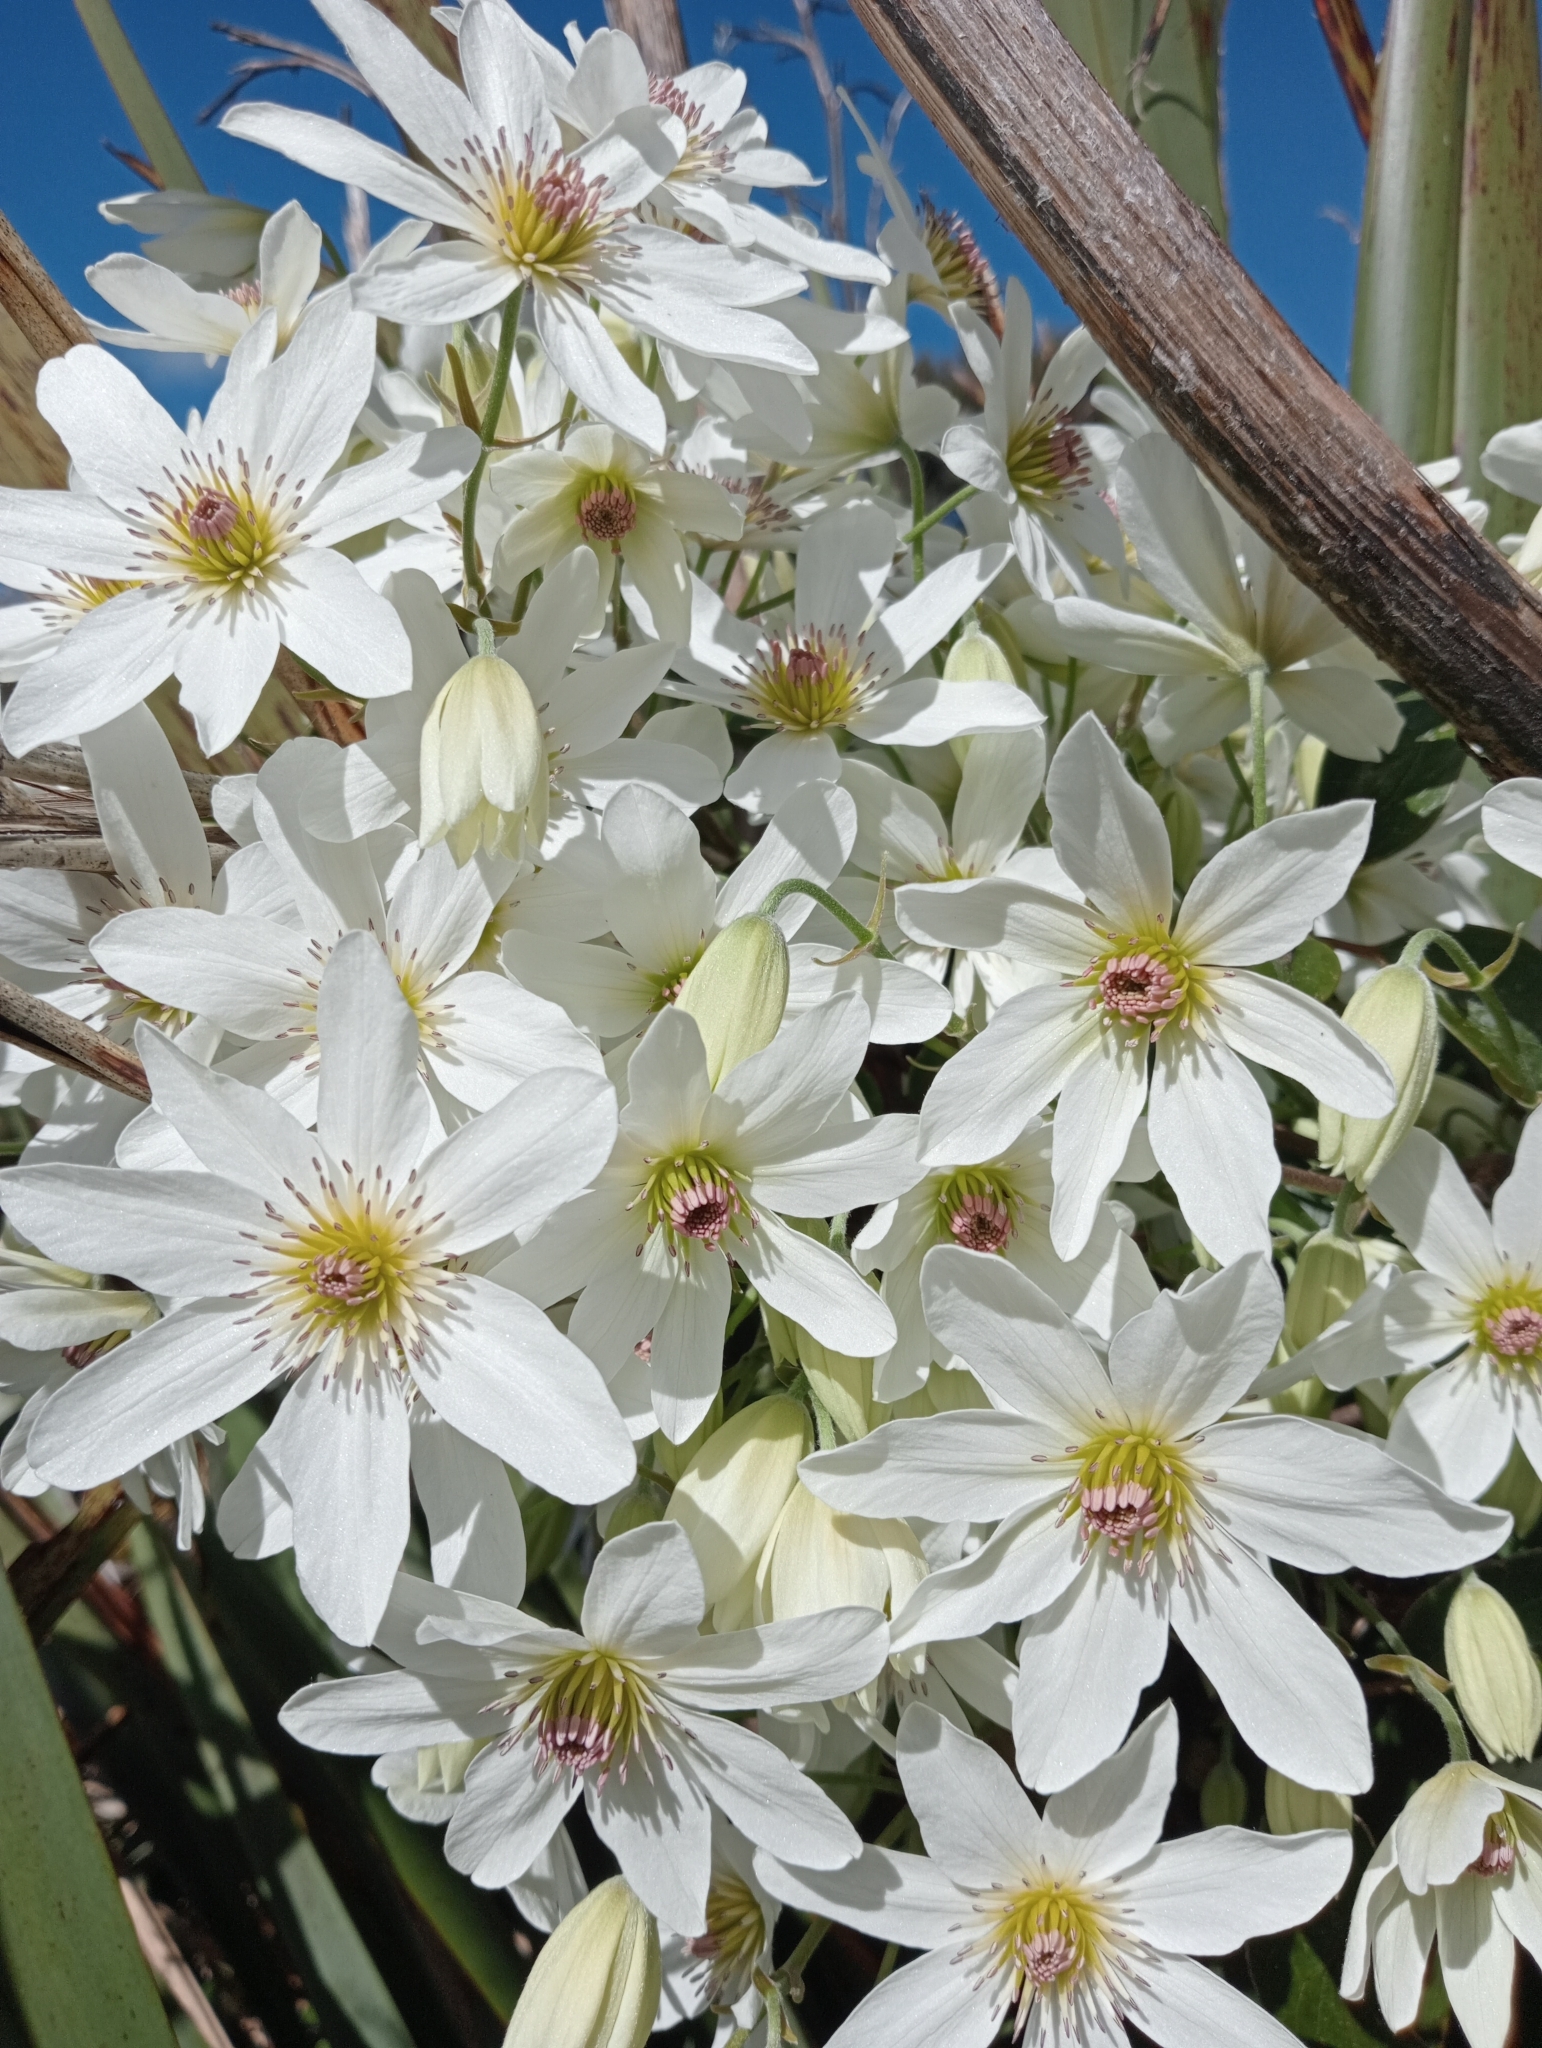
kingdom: Plantae
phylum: Tracheophyta
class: Magnoliopsida
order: Ranunculales
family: Ranunculaceae
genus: Clematis
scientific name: Clematis paniculata
